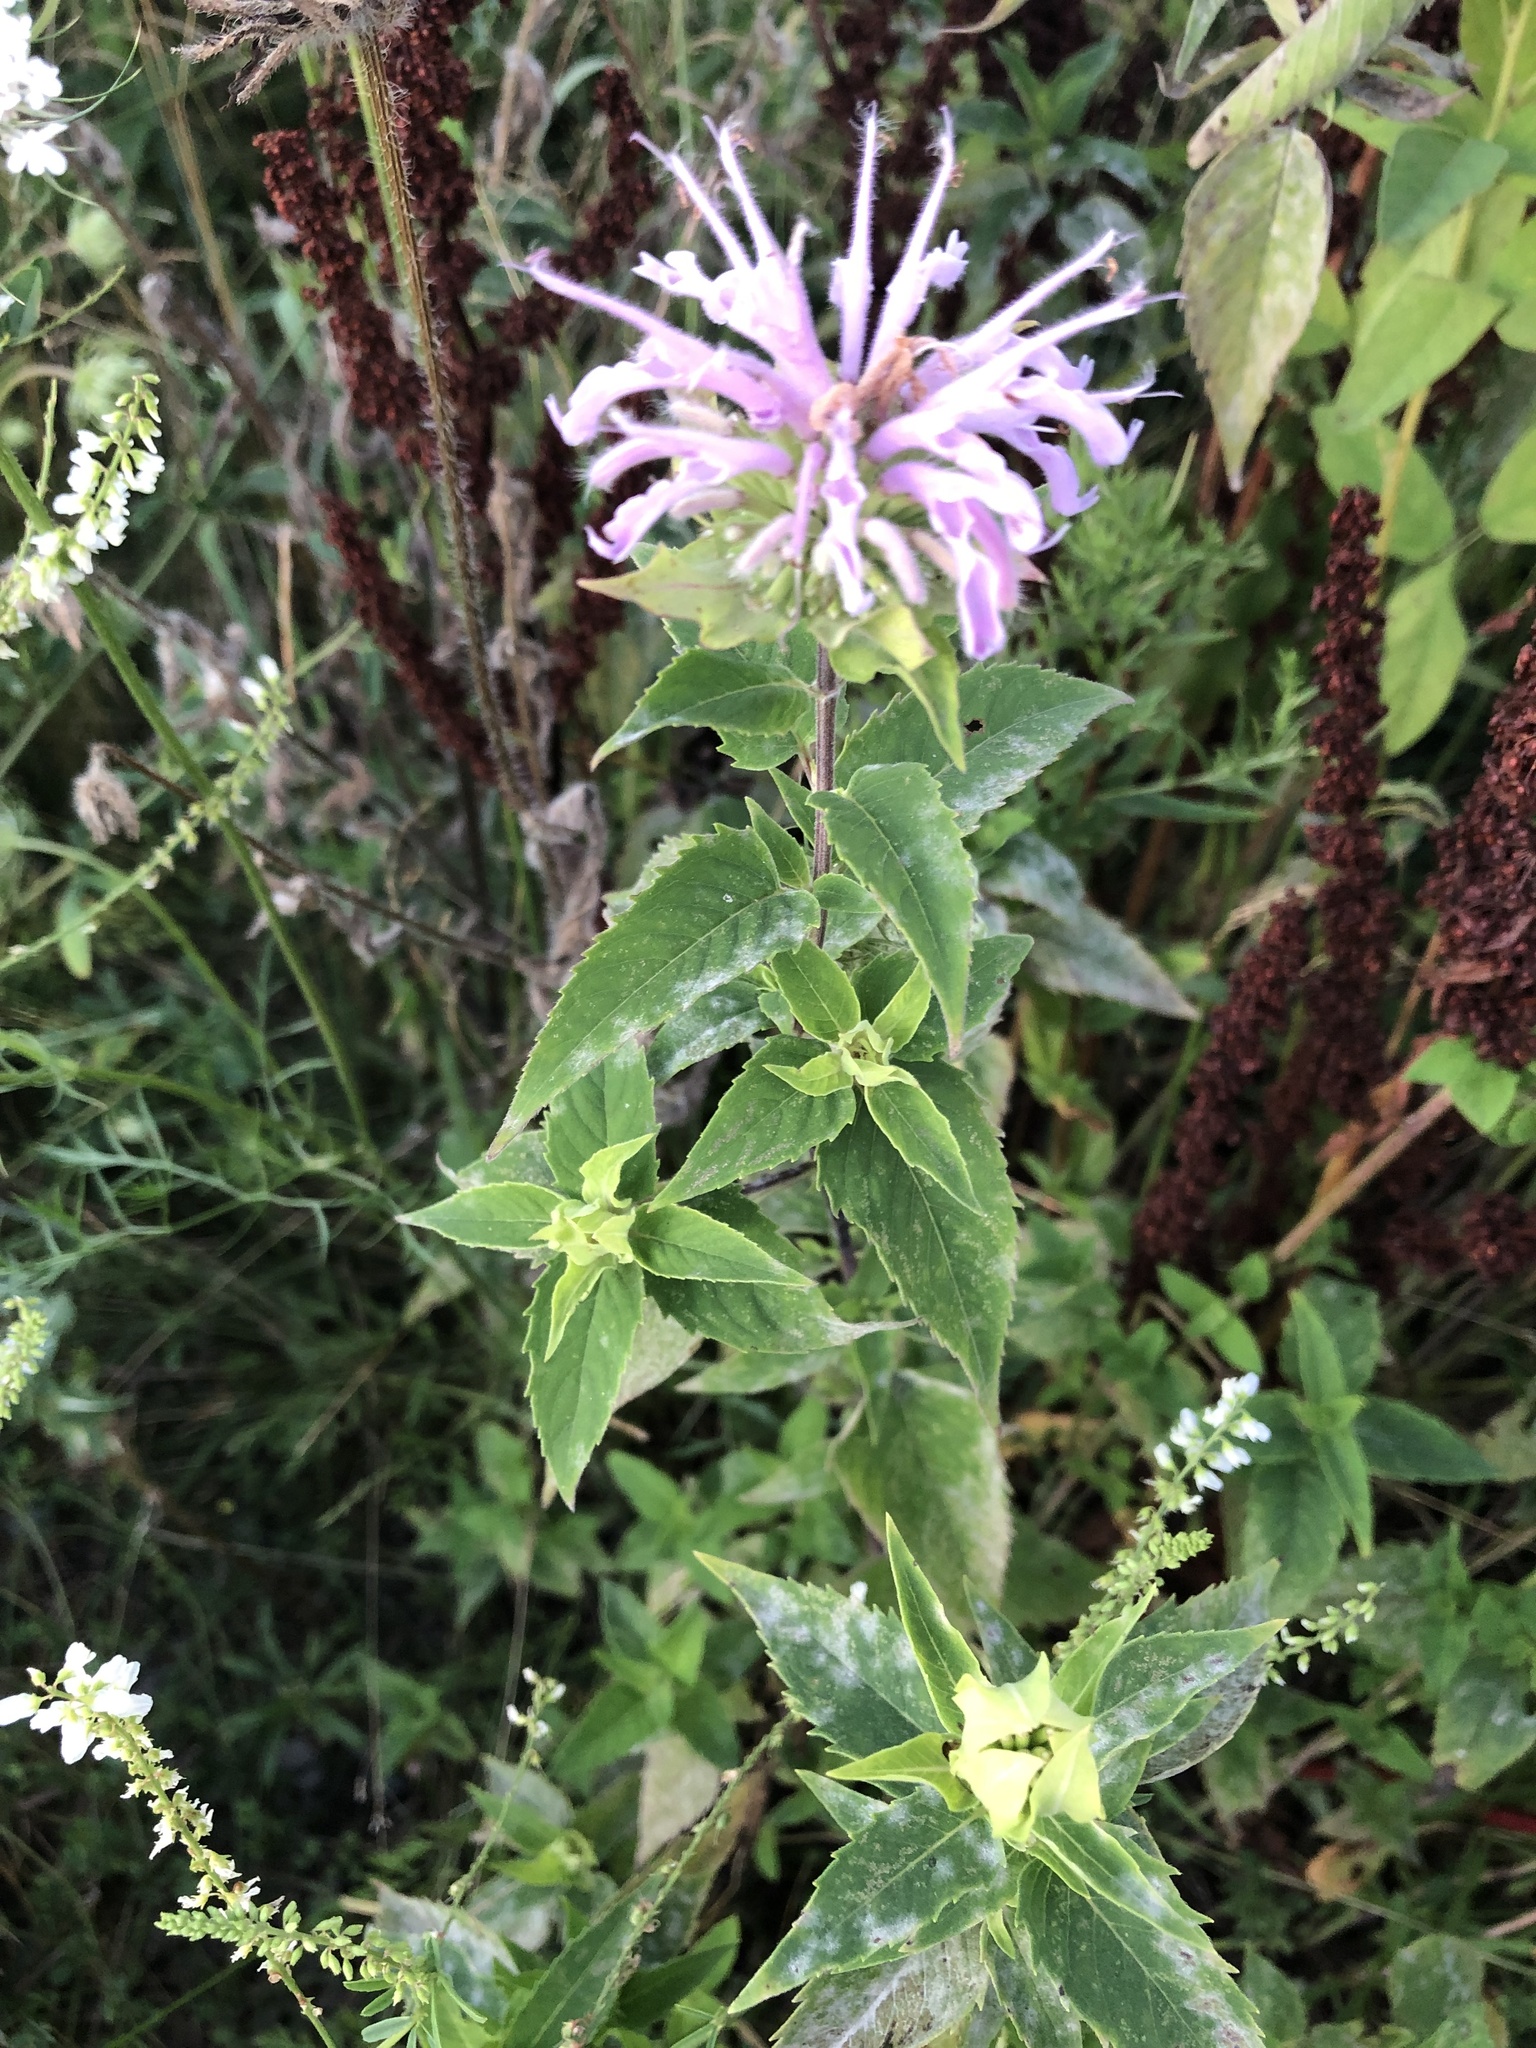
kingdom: Plantae
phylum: Tracheophyta
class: Magnoliopsida
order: Lamiales
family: Lamiaceae
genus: Monarda
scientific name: Monarda fistulosa
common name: Purple beebalm
